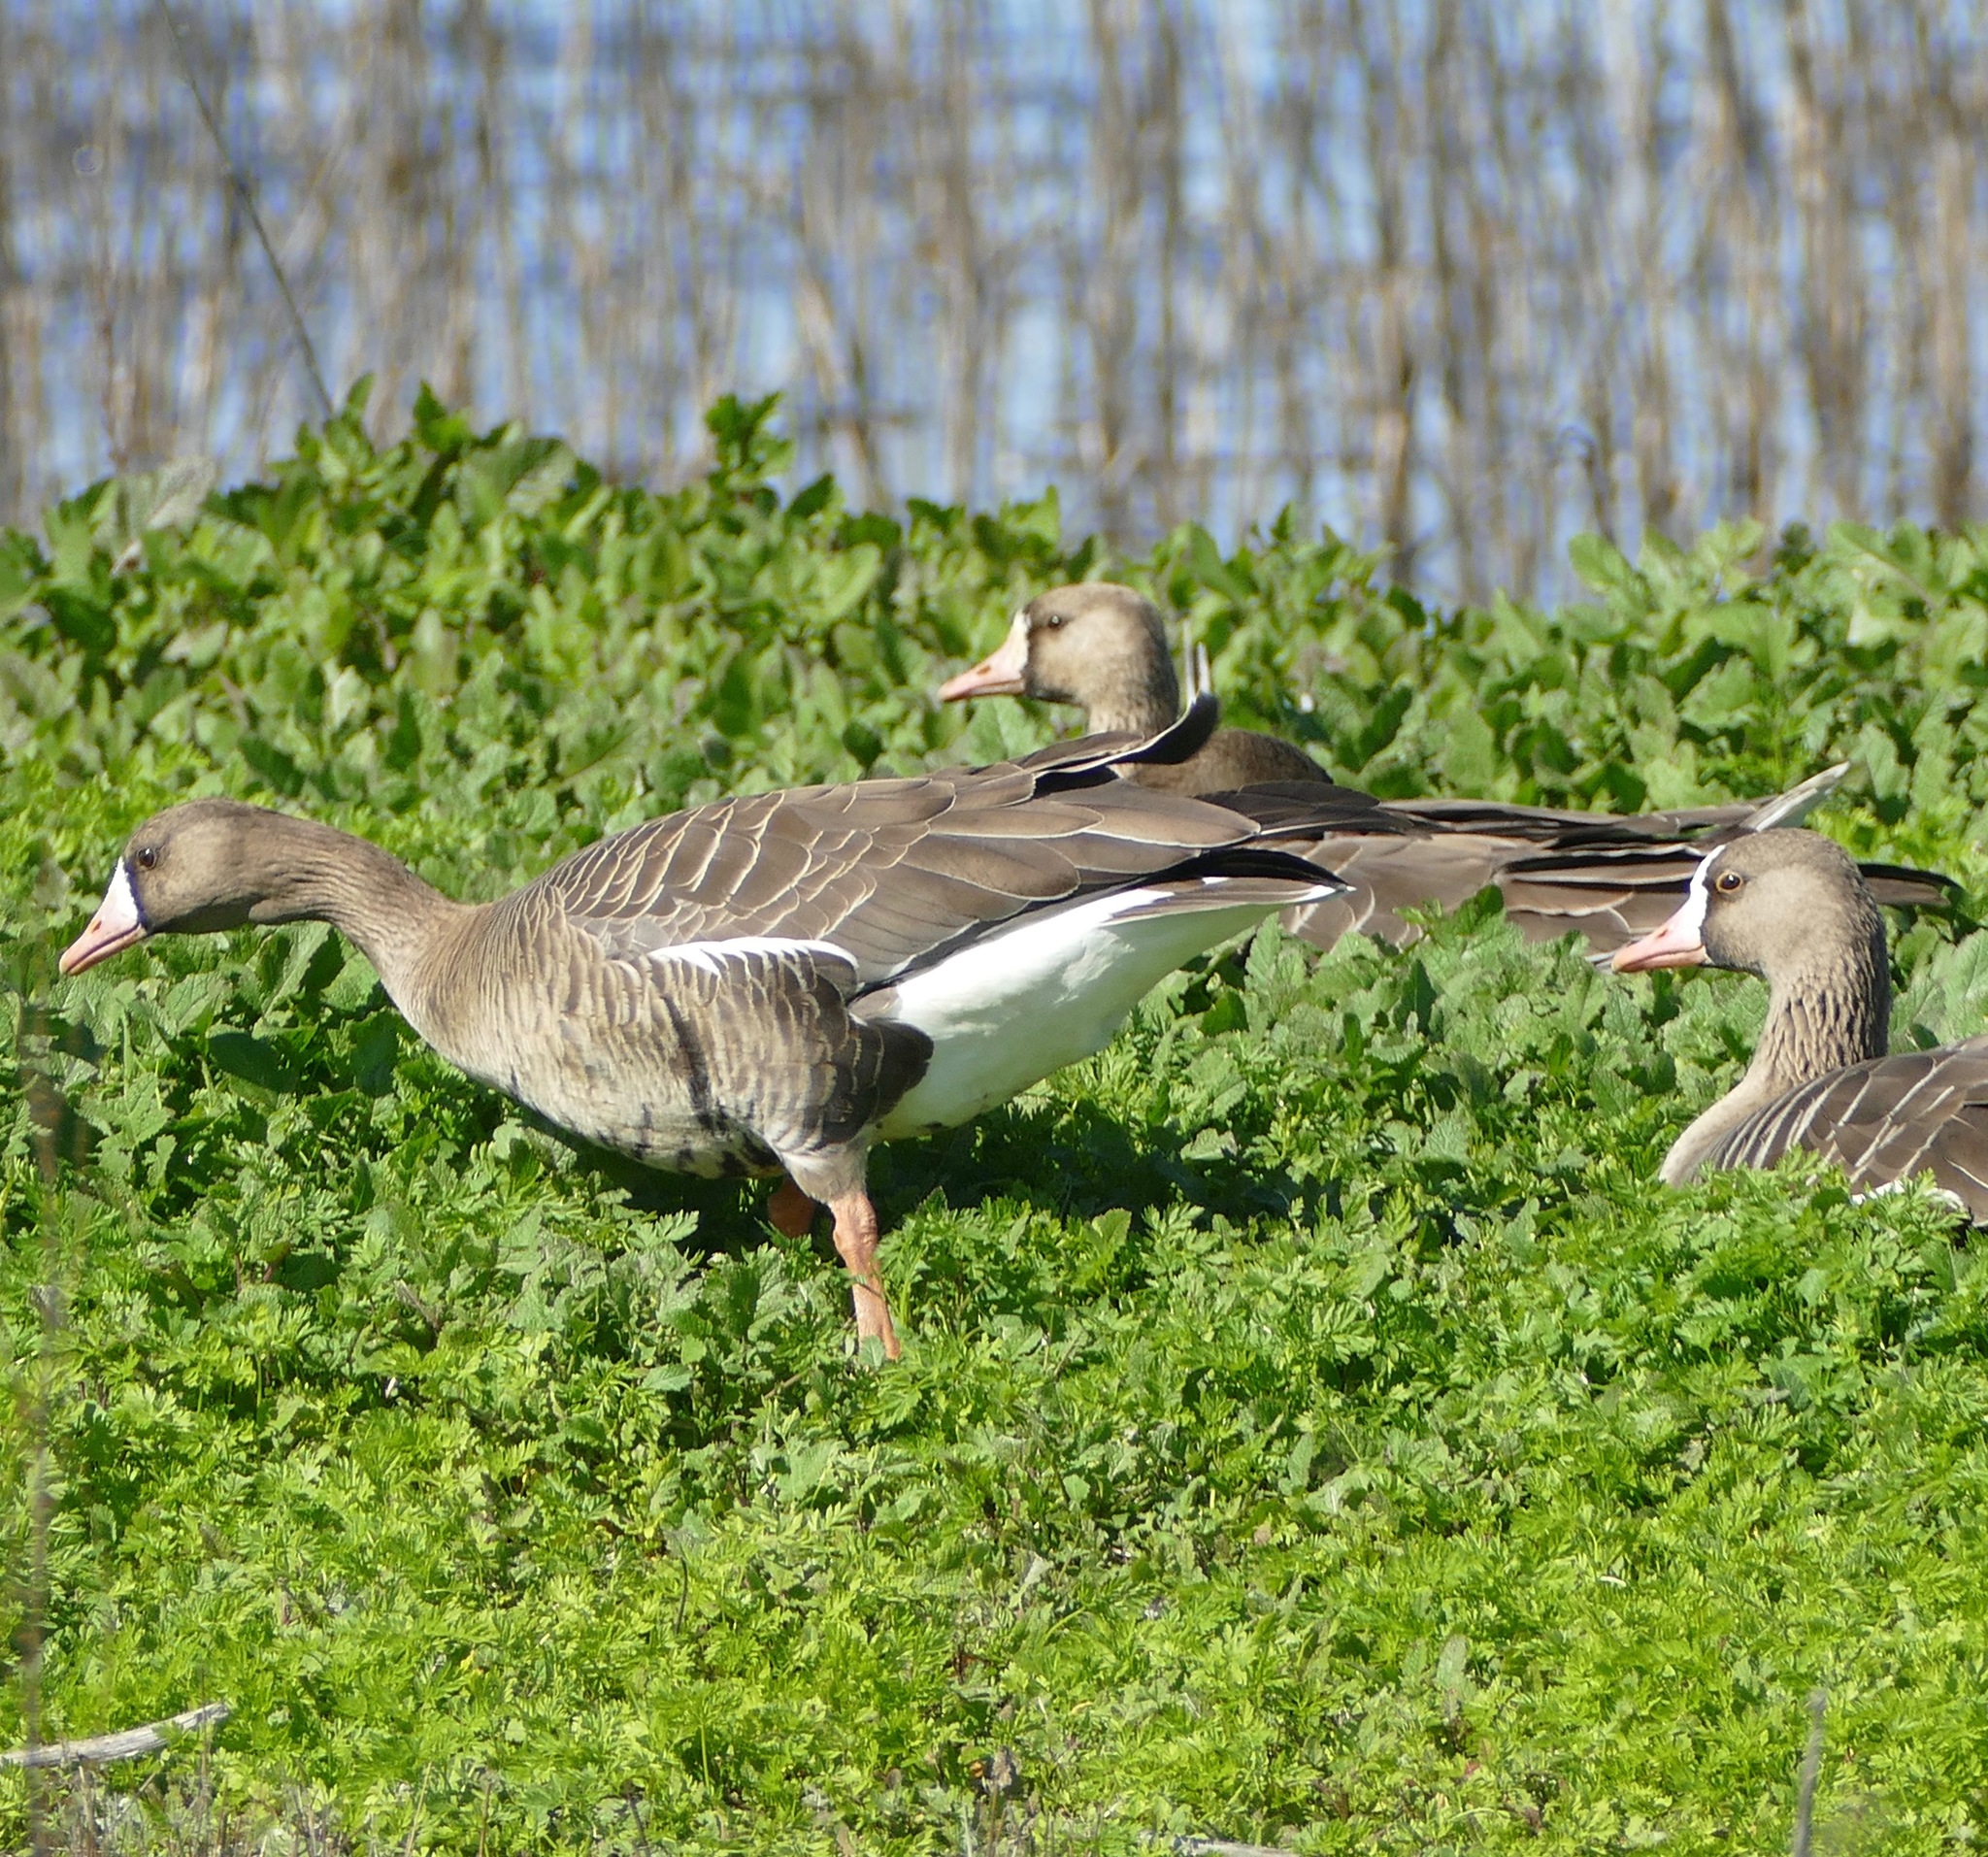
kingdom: Animalia
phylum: Chordata
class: Aves
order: Anseriformes
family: Anatidae
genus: Anser
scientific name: Anser albifrons
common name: Greater white-fronted goose
